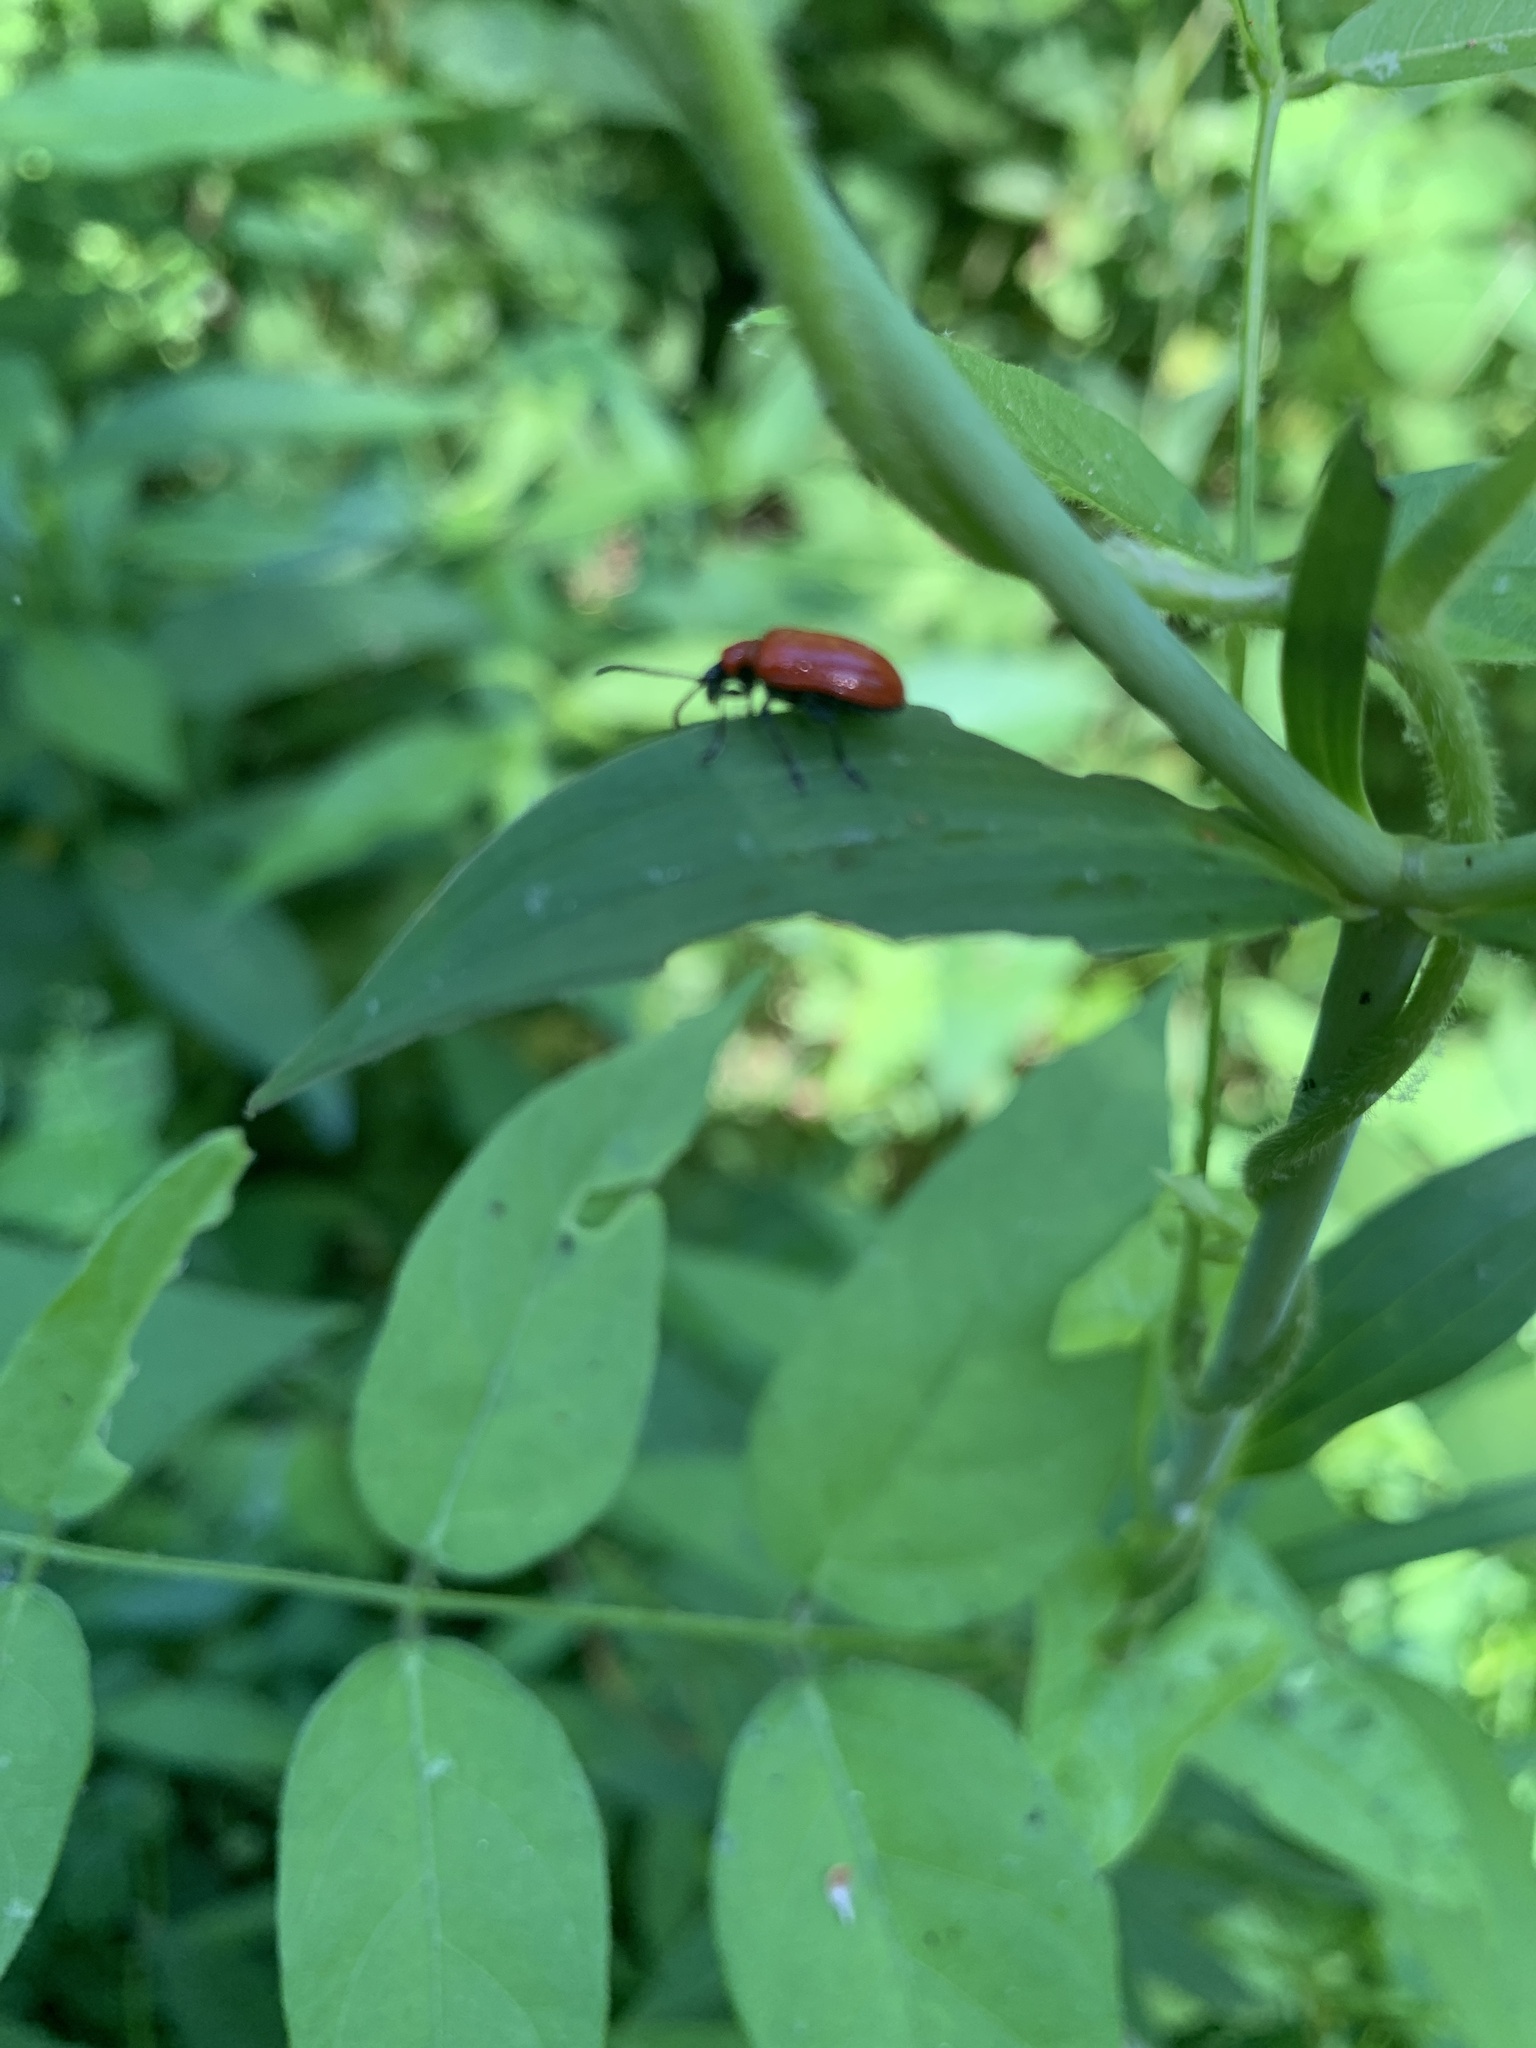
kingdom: Animalia
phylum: Arthropoda
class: Insecta
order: Coleoptera
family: Chrysomelidae
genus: Lilioceris
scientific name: Lilioceris lilii
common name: Lily beetle
